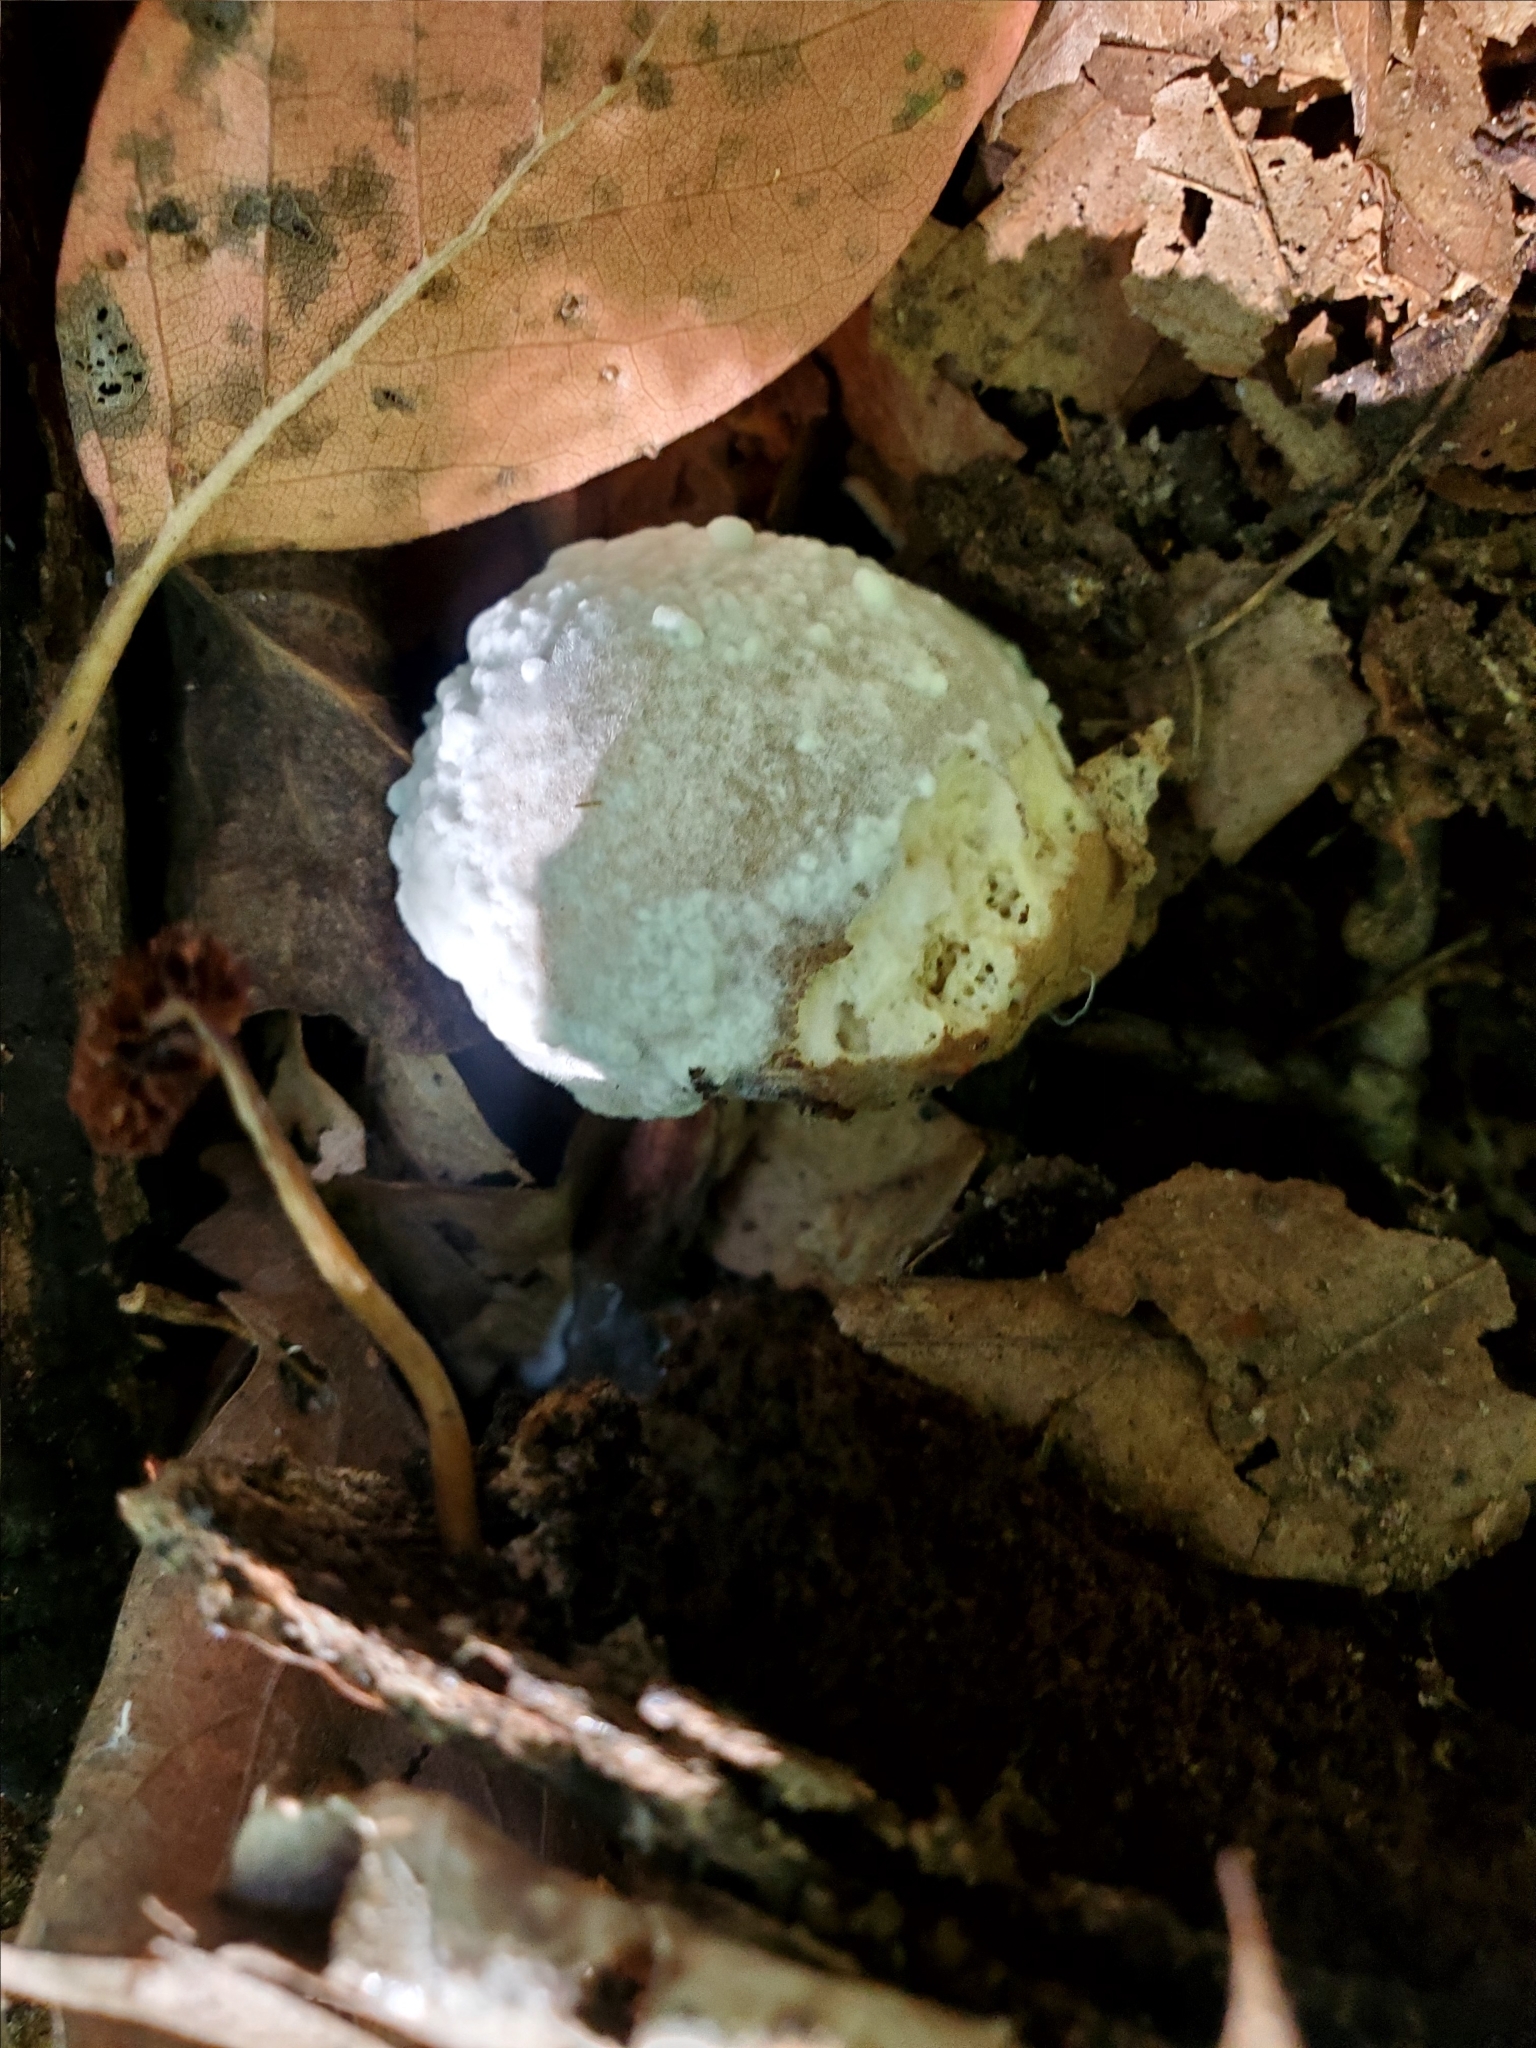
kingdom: Fungi
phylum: Ascomycota
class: Sordariomycetes
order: Hypocreales
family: Hypocreaceae
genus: Hypomyces
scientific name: Hypomyces chrysospermus
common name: Bolete mould
